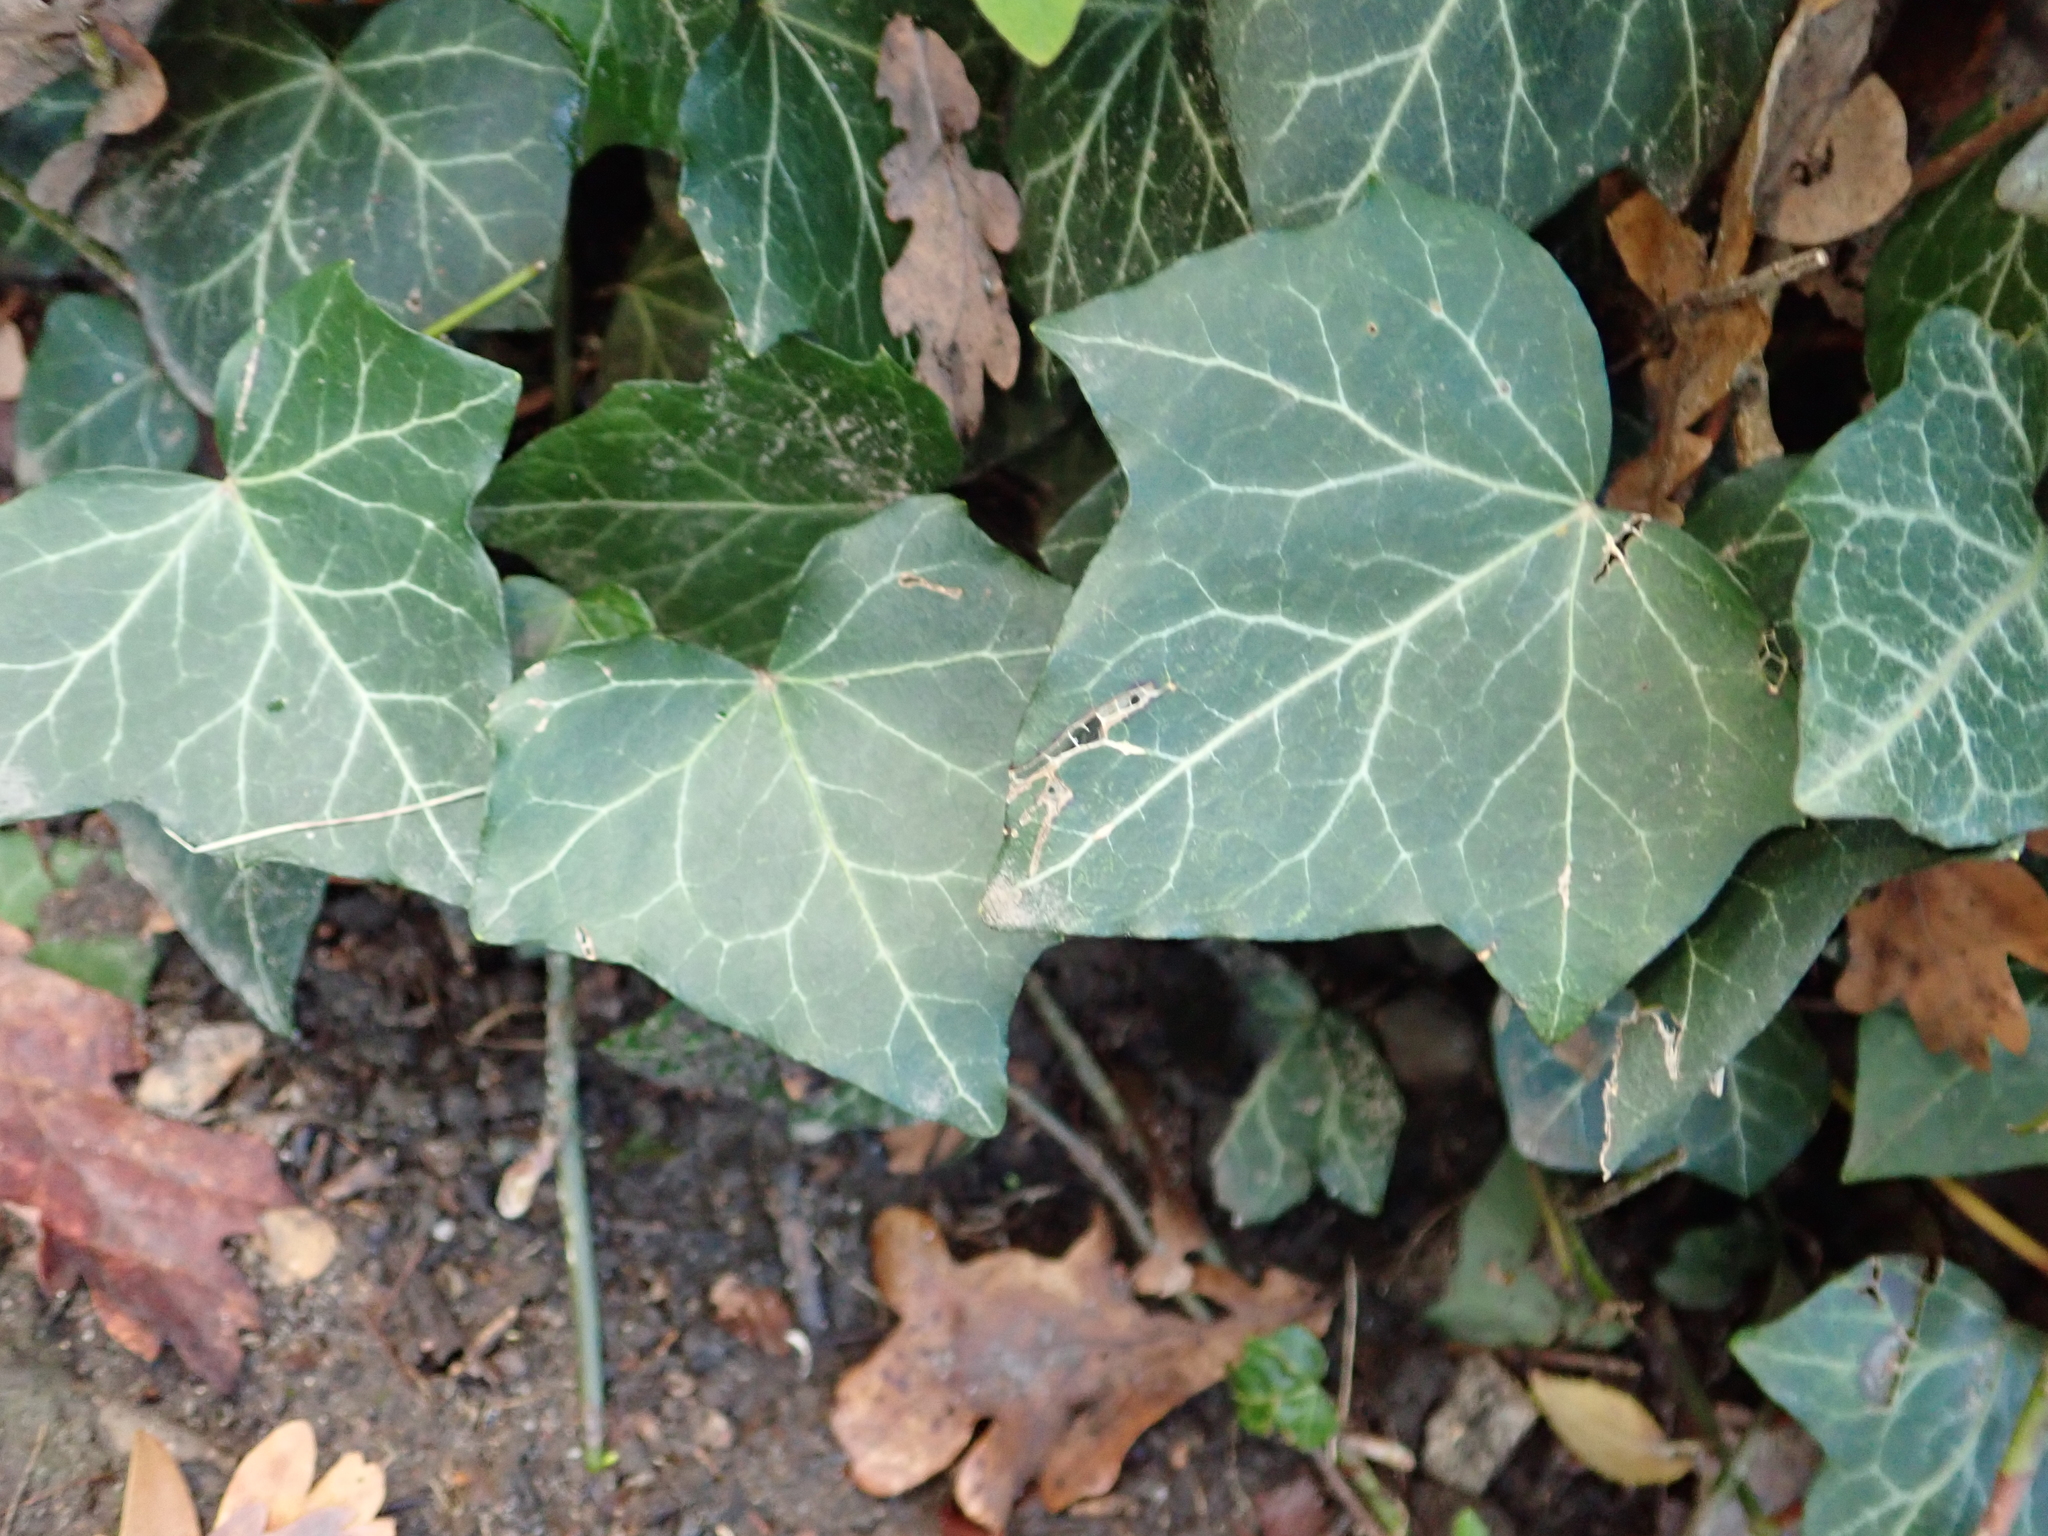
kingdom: Plantae
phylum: Tracheophyta
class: Magnoliopsida
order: Apiales
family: Araliaceae
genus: Hedera
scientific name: Hedera helix
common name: Ivy
